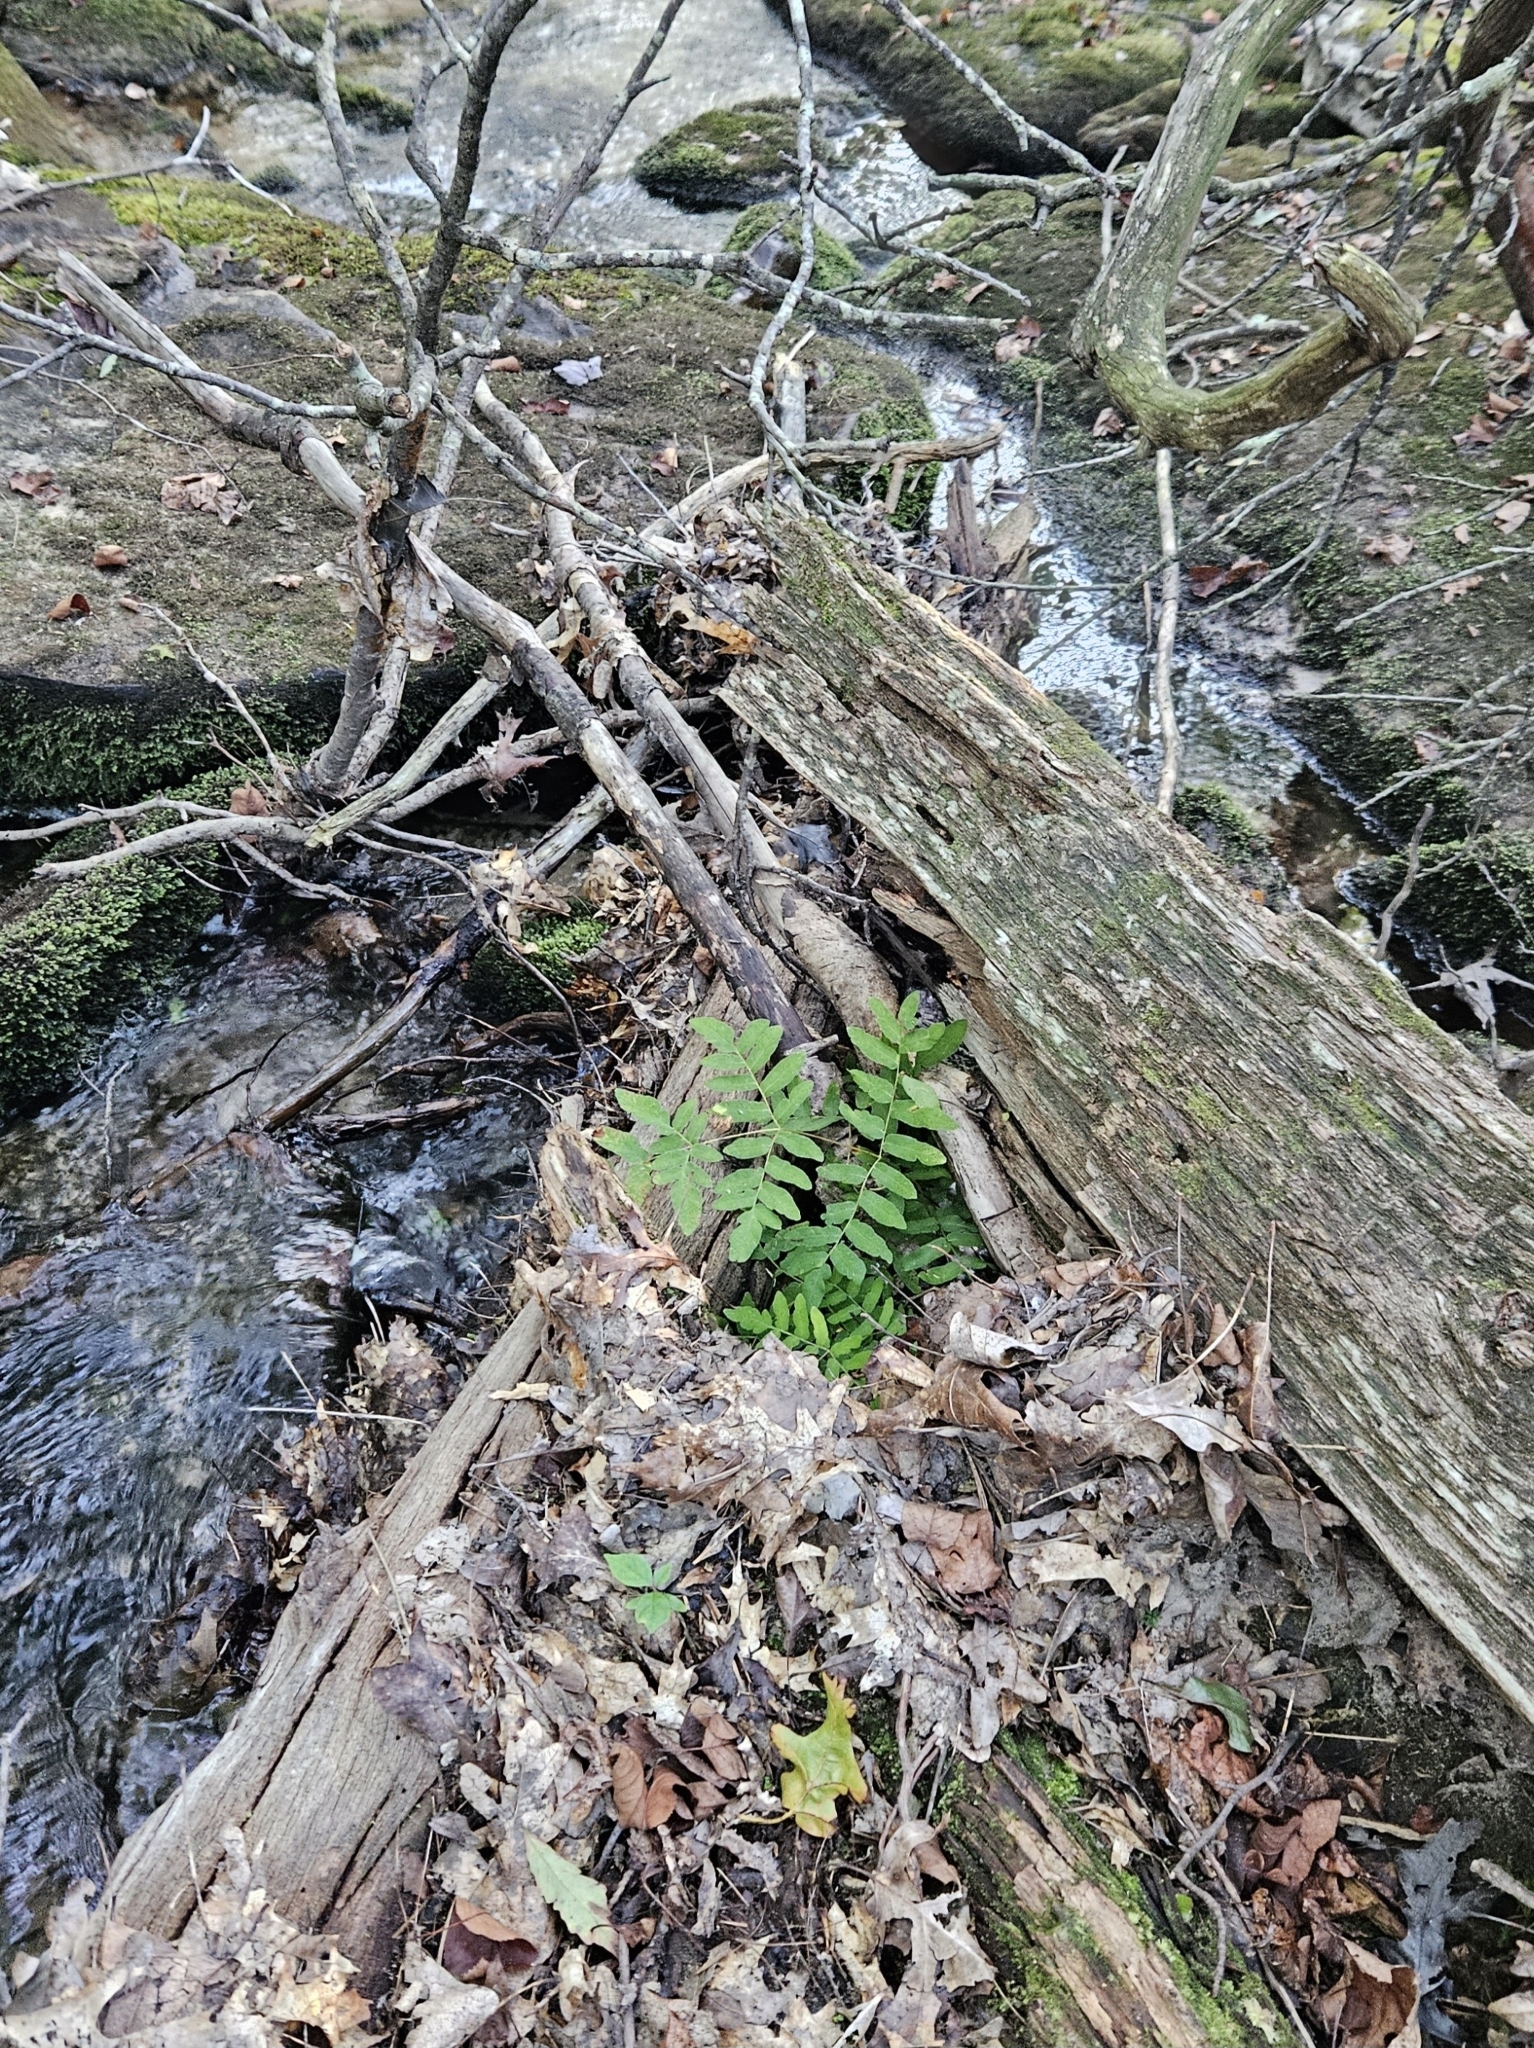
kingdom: Plantae
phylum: Tracheophyta
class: Polypodiopsida
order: Osmundales
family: Osmundaceae
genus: Osmunda
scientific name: Osmunda spectabilis
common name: American royal fern
